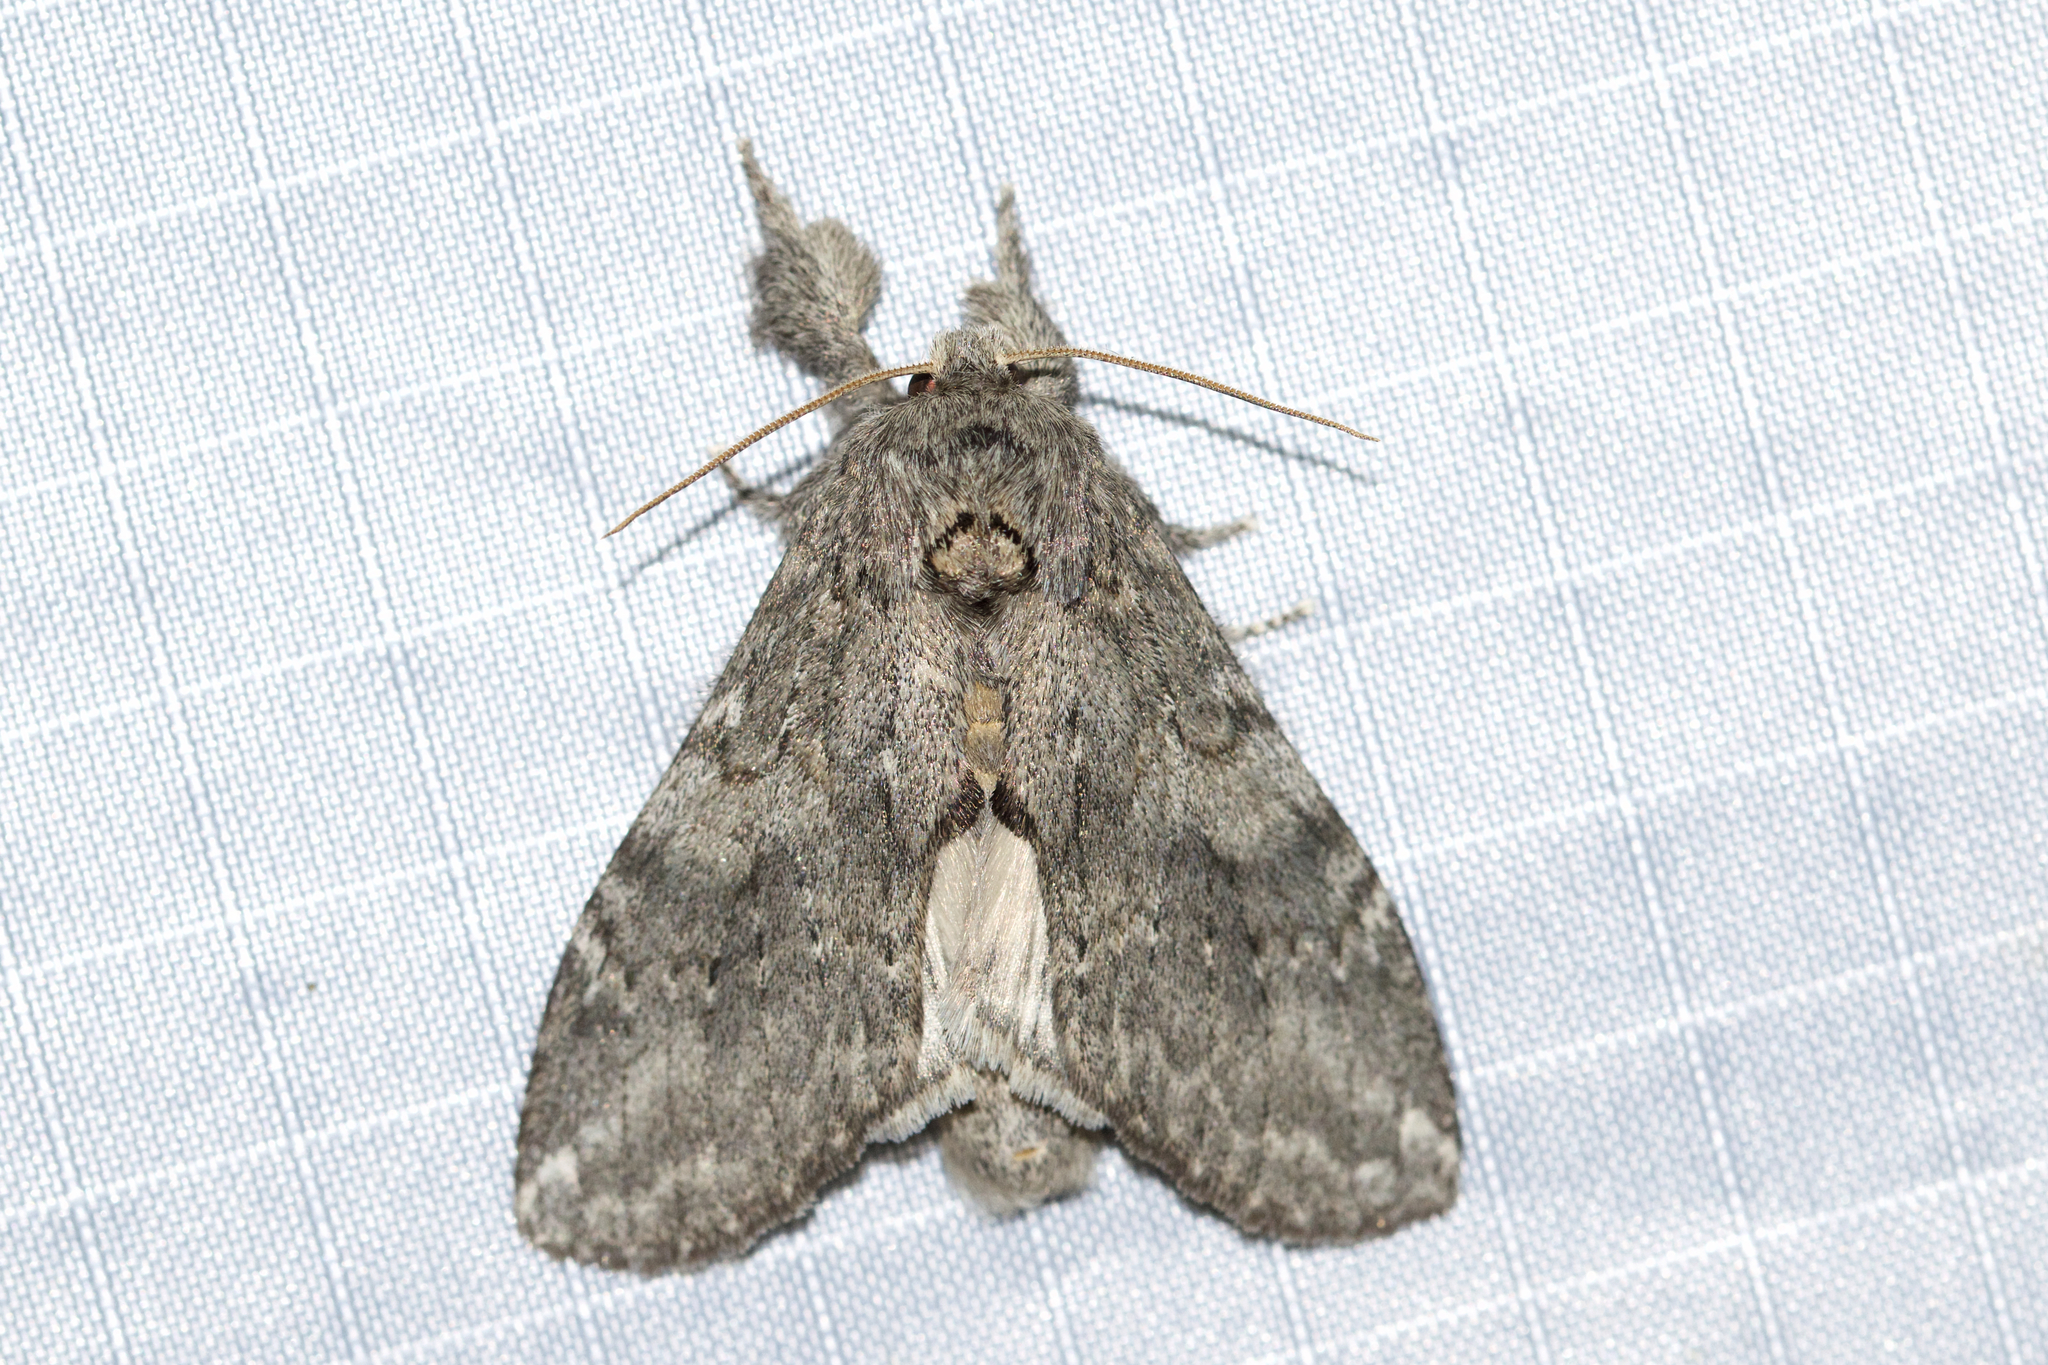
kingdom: Animalia
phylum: Arthropoda
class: Insecta
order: Lepidoptera
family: Notodontidae
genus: Peridea
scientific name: Peridea angulosa
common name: Angulose prominent
